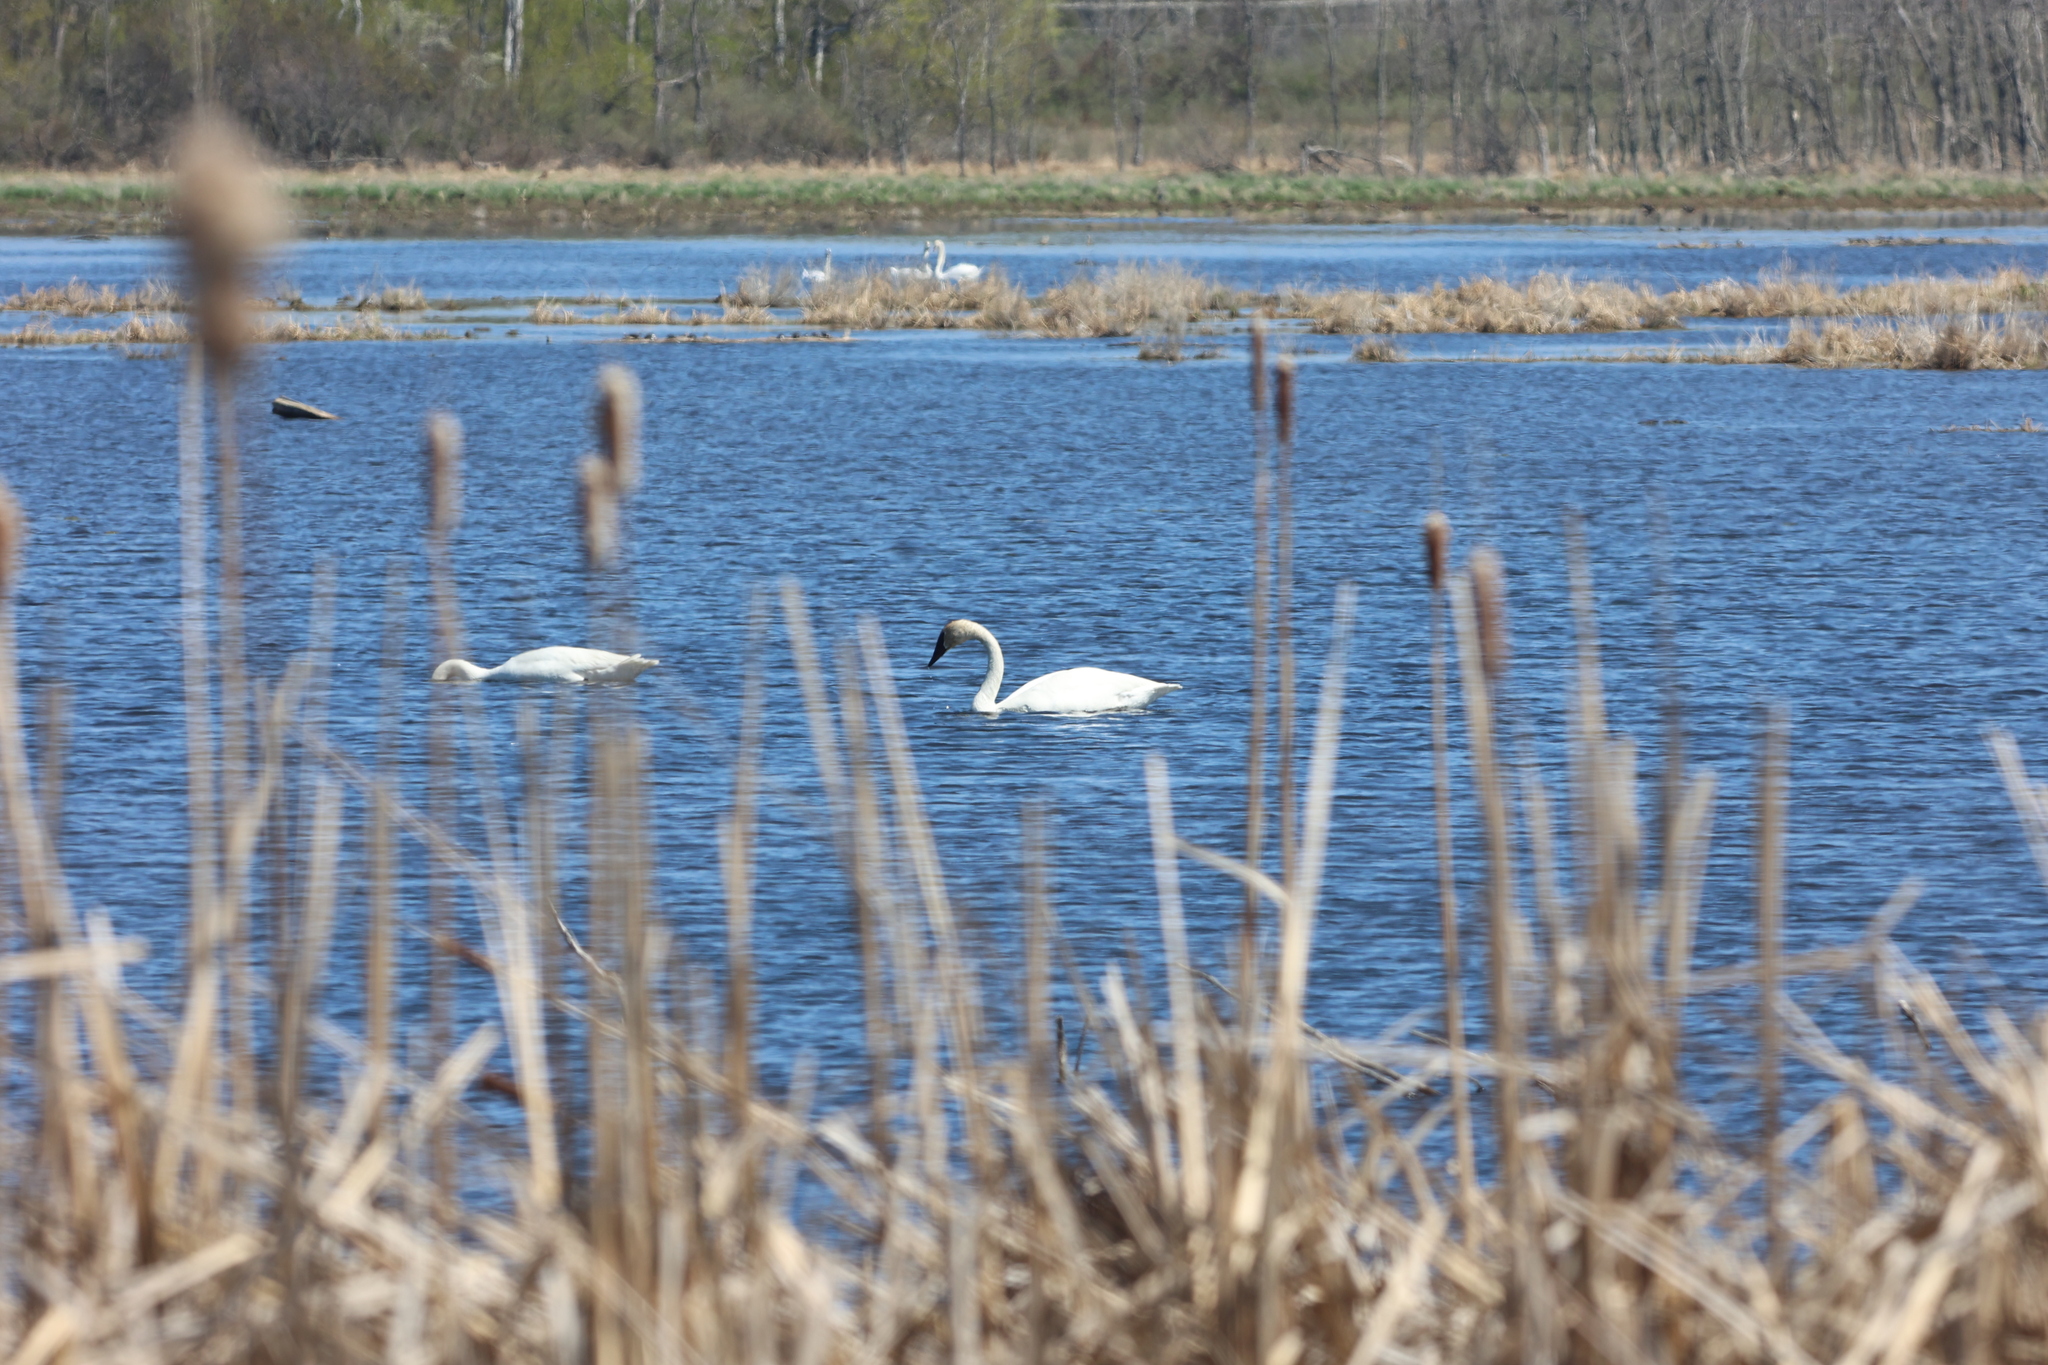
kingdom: Animalia
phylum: Chordata
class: Aves
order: Anseriformes
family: Anatidae
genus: Cygnus
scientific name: Cygnus buccinator
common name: Trumpeter swan
